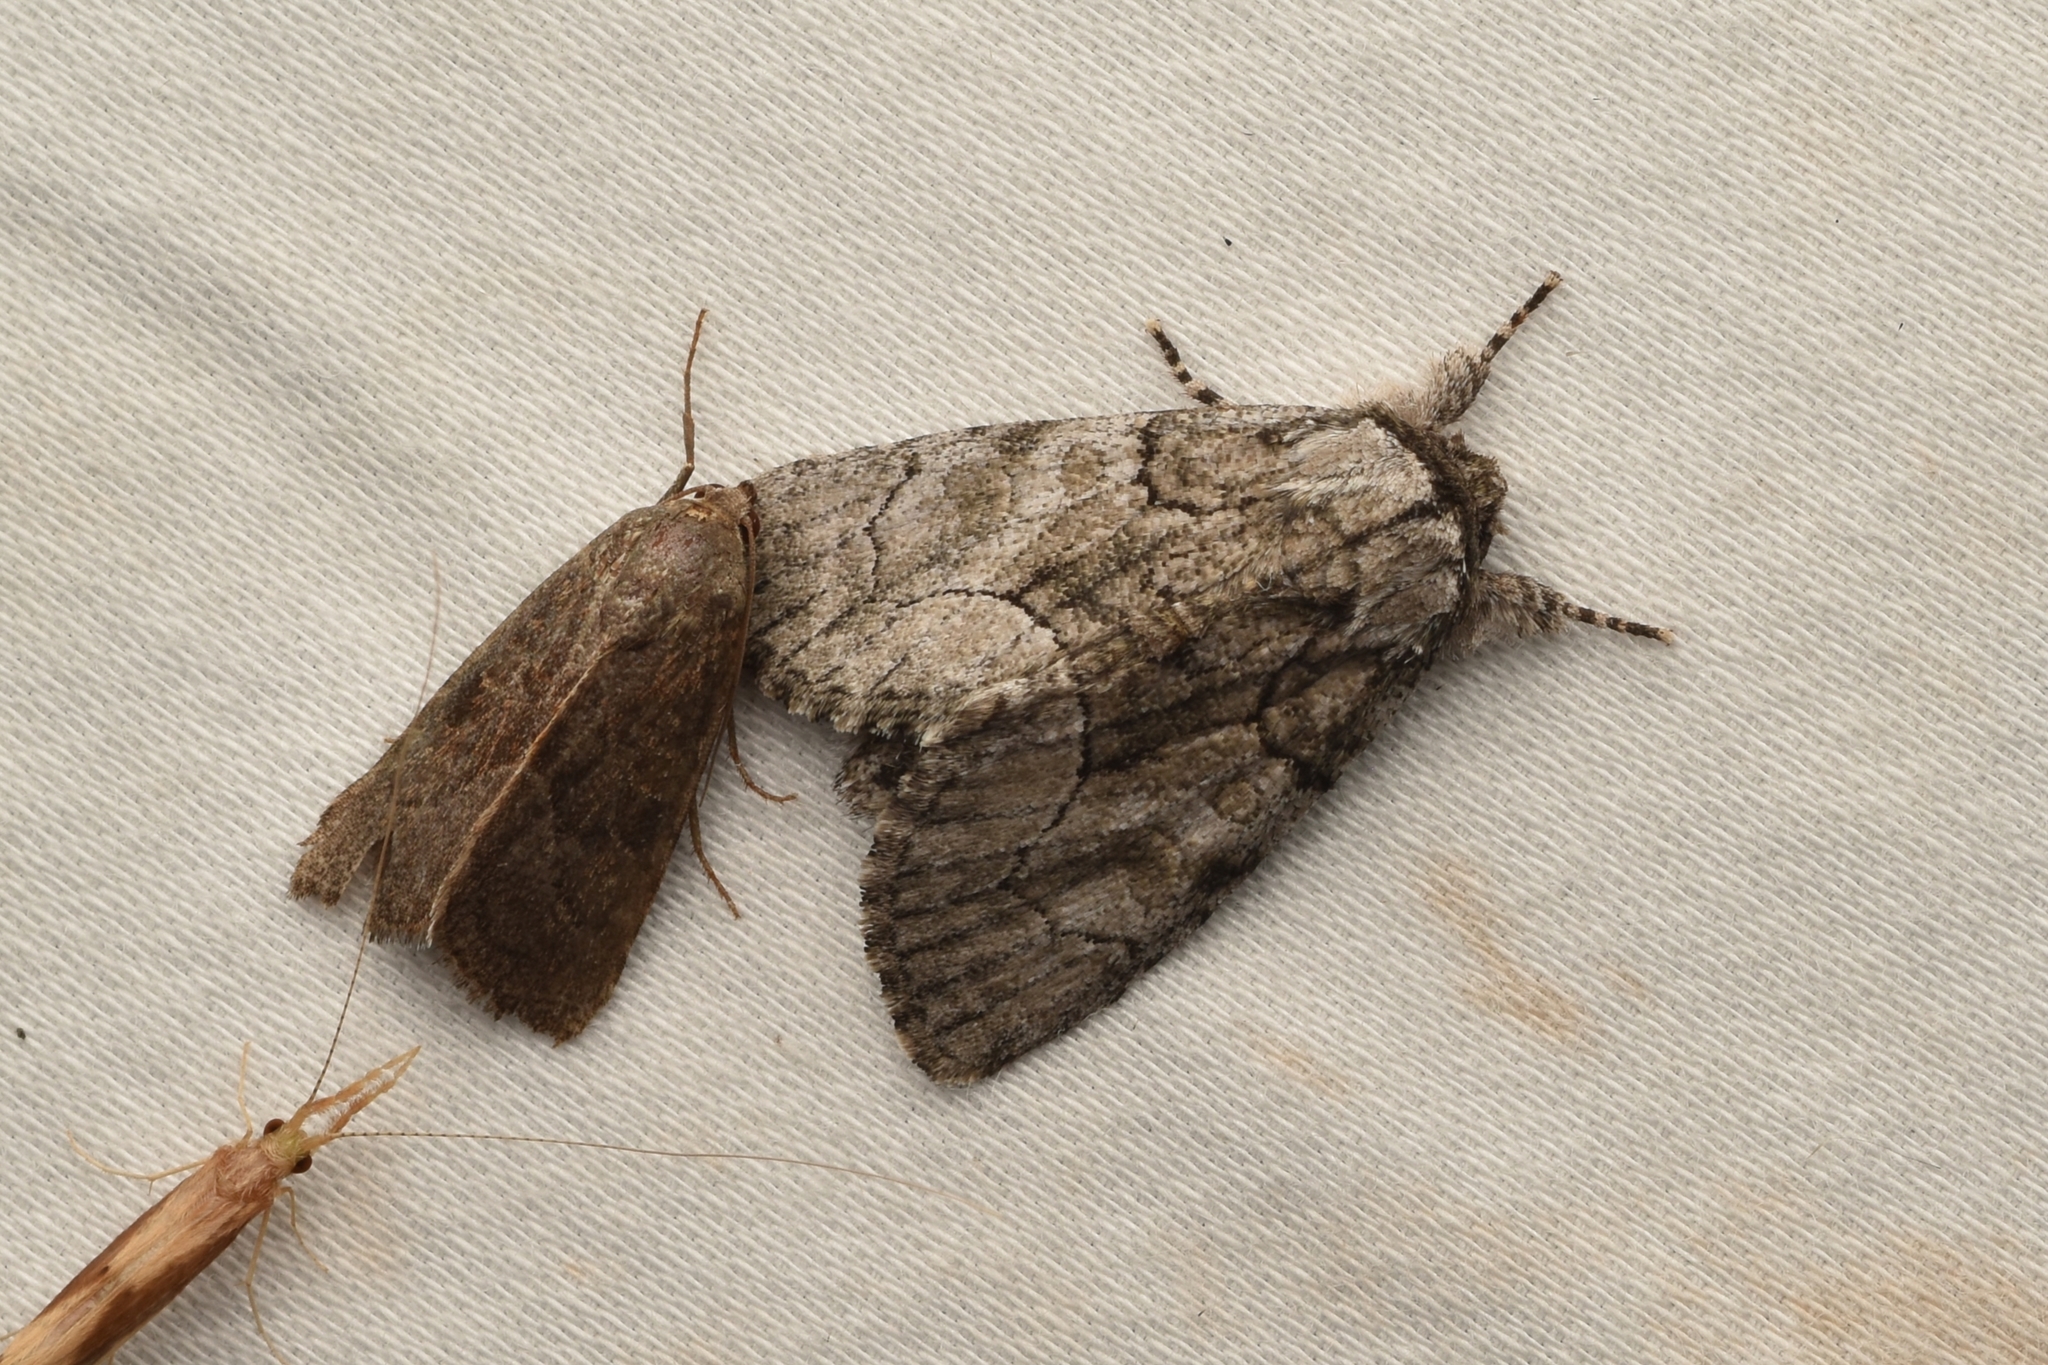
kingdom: Animalia
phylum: Arthropoda
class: Insecta
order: Lepidoptera
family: Noctuidae
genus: Raphia
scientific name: Raphia frater
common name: Brother
